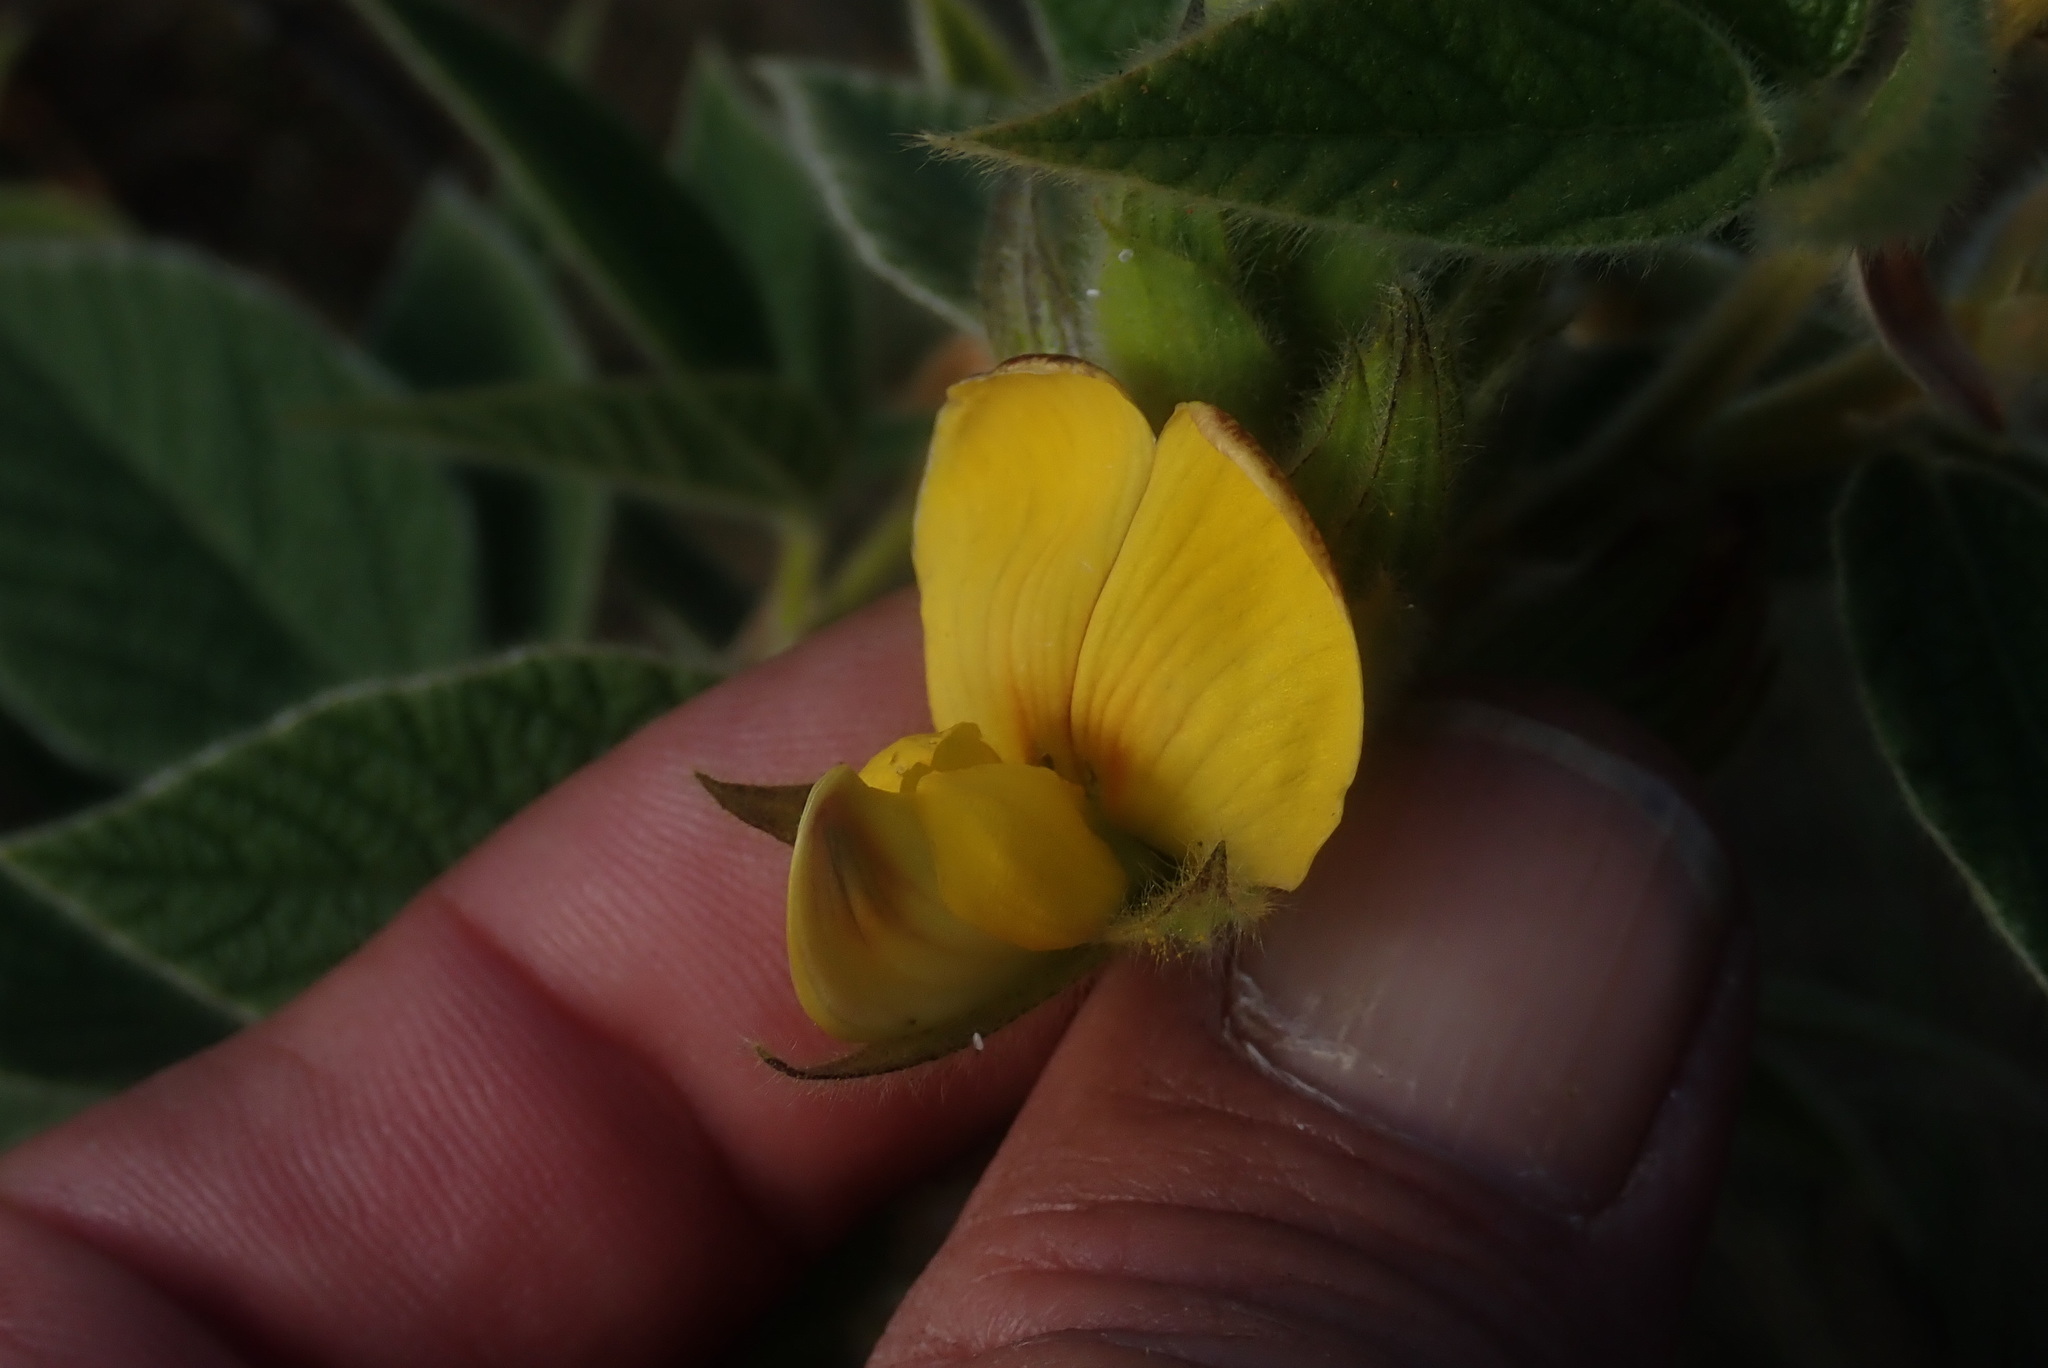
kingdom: Plantae
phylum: Tracheophyta
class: Magnoliopsida
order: Fabales
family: Fabaceae
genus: Rhynchosia
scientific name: Rhynchosia clivorum
